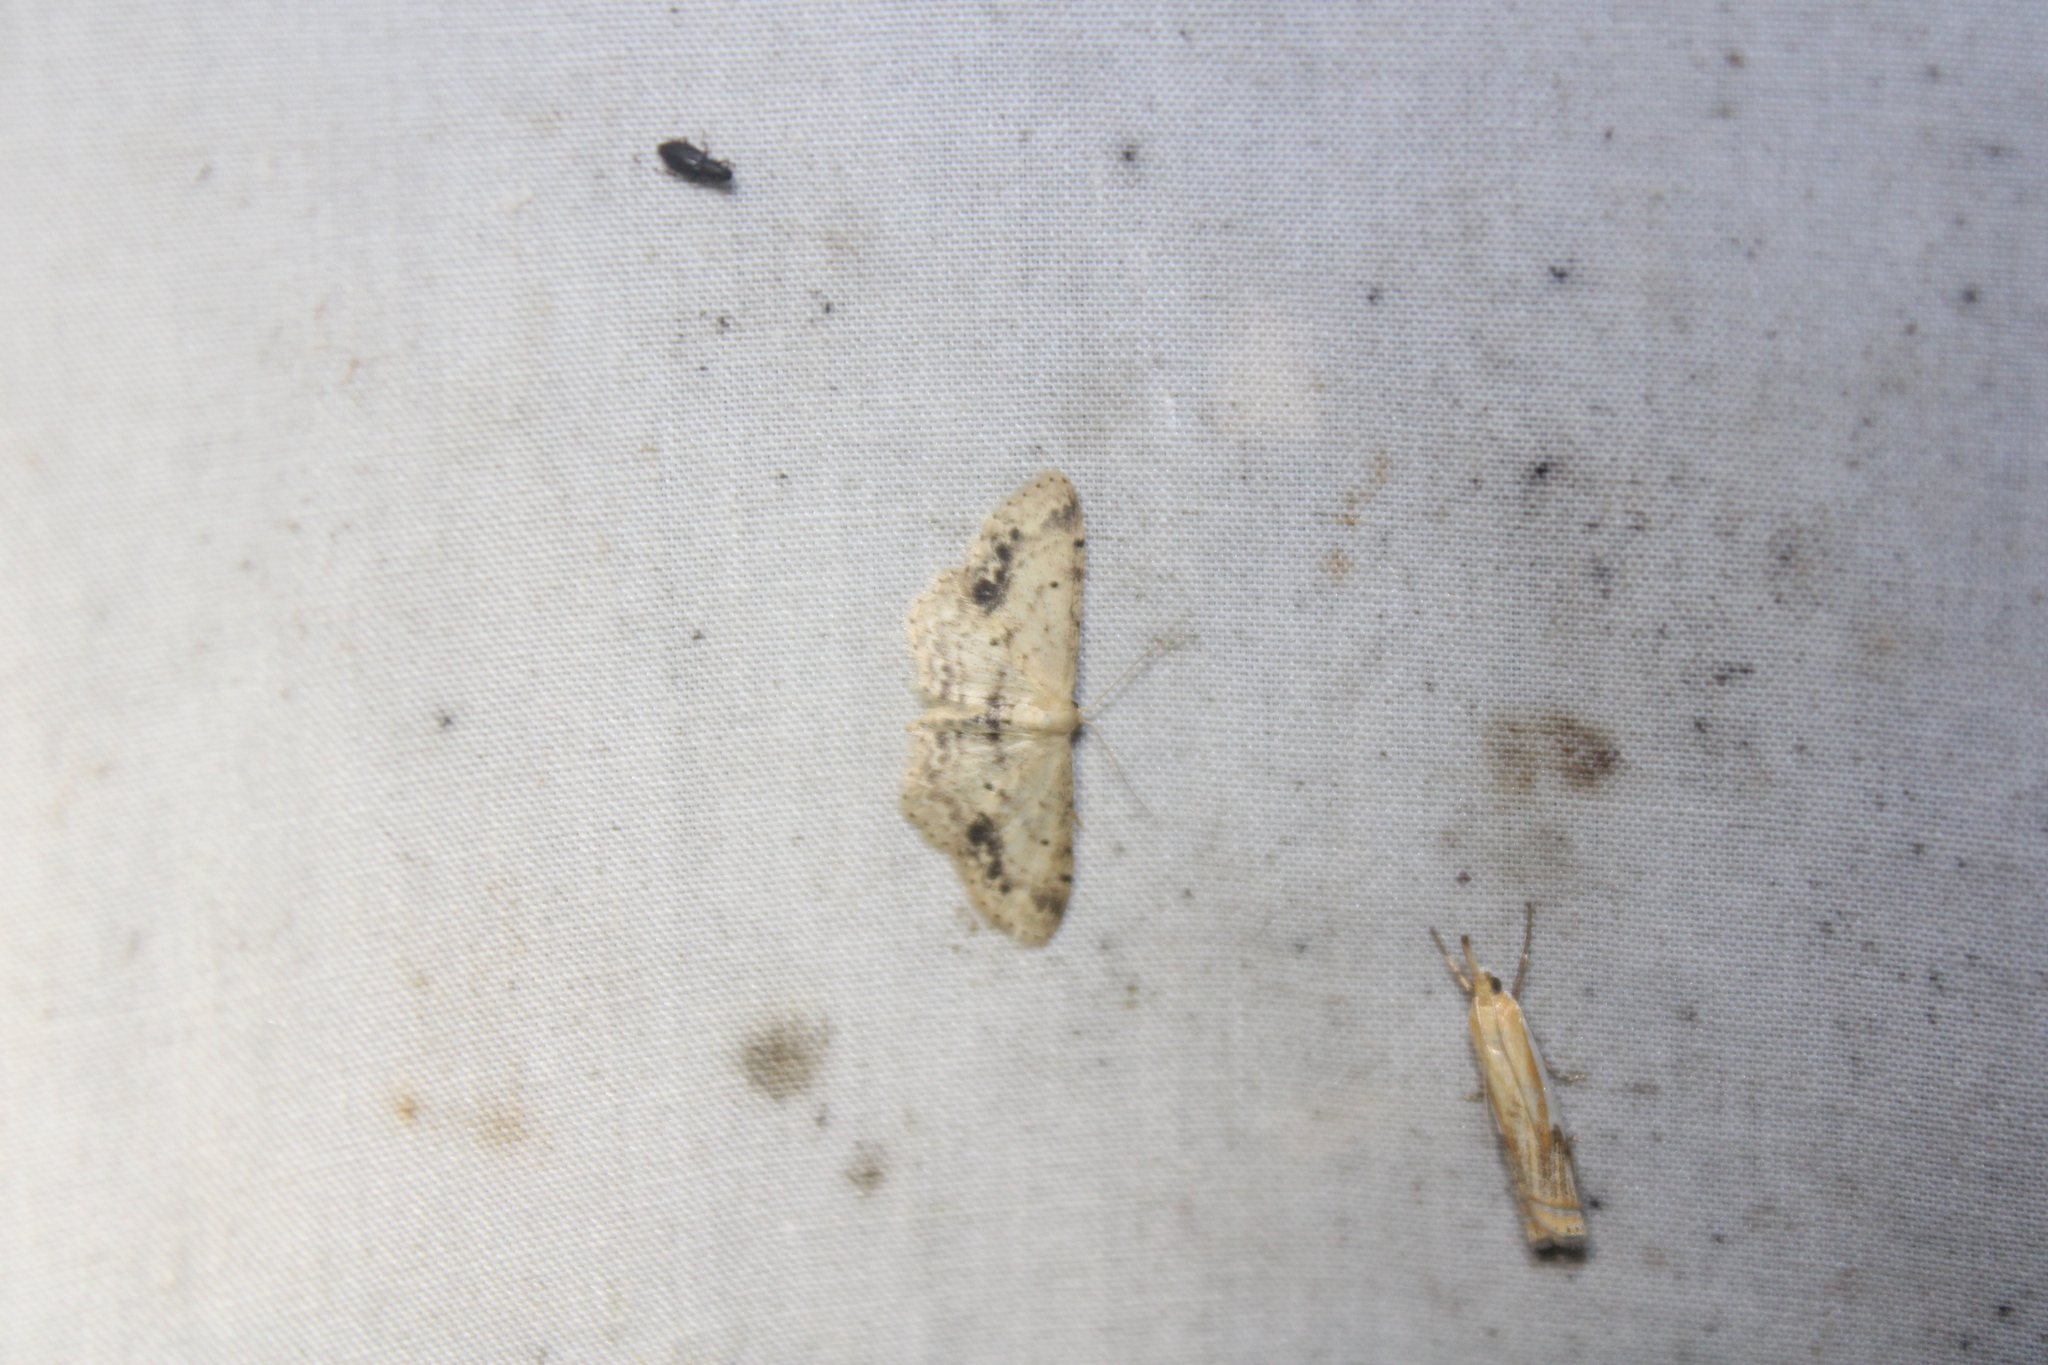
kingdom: Animalia
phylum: Arthropoda
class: Insecta
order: Lepidoptera
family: Geometridae
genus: Idaea
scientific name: Idaea dimidiata
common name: Single-dotted wave
